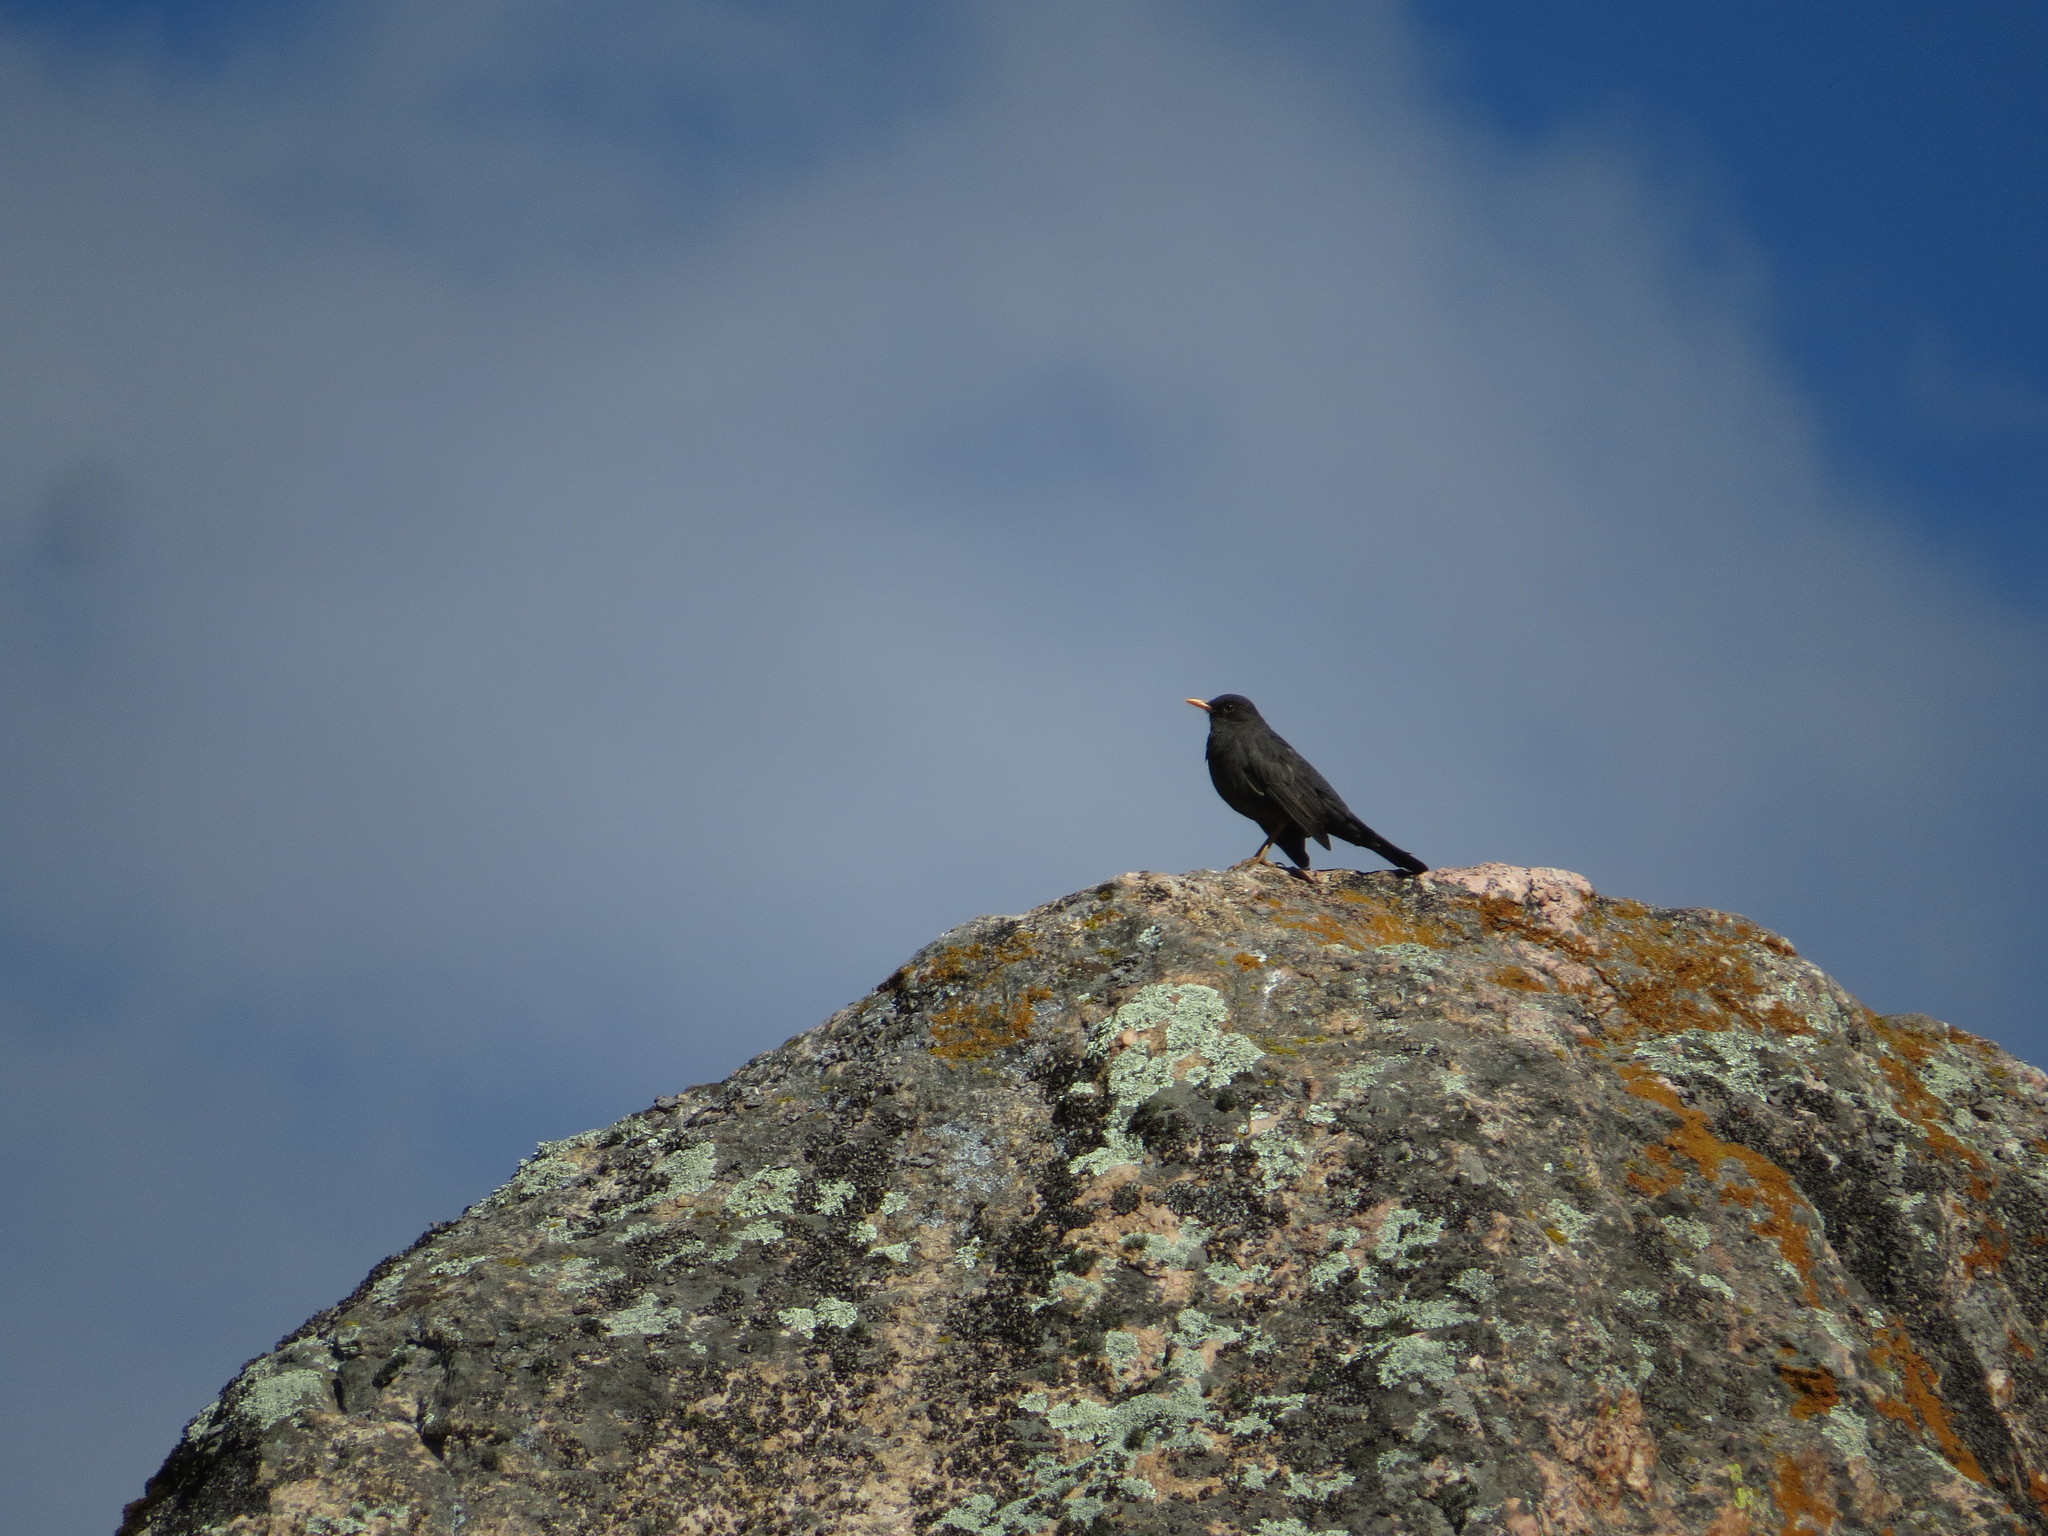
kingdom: Animalia
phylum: Chordata
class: Aves
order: Passeriformes
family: Turdidae
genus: Turdus
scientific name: Turdus chiguanco
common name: Chiguanco thrush
